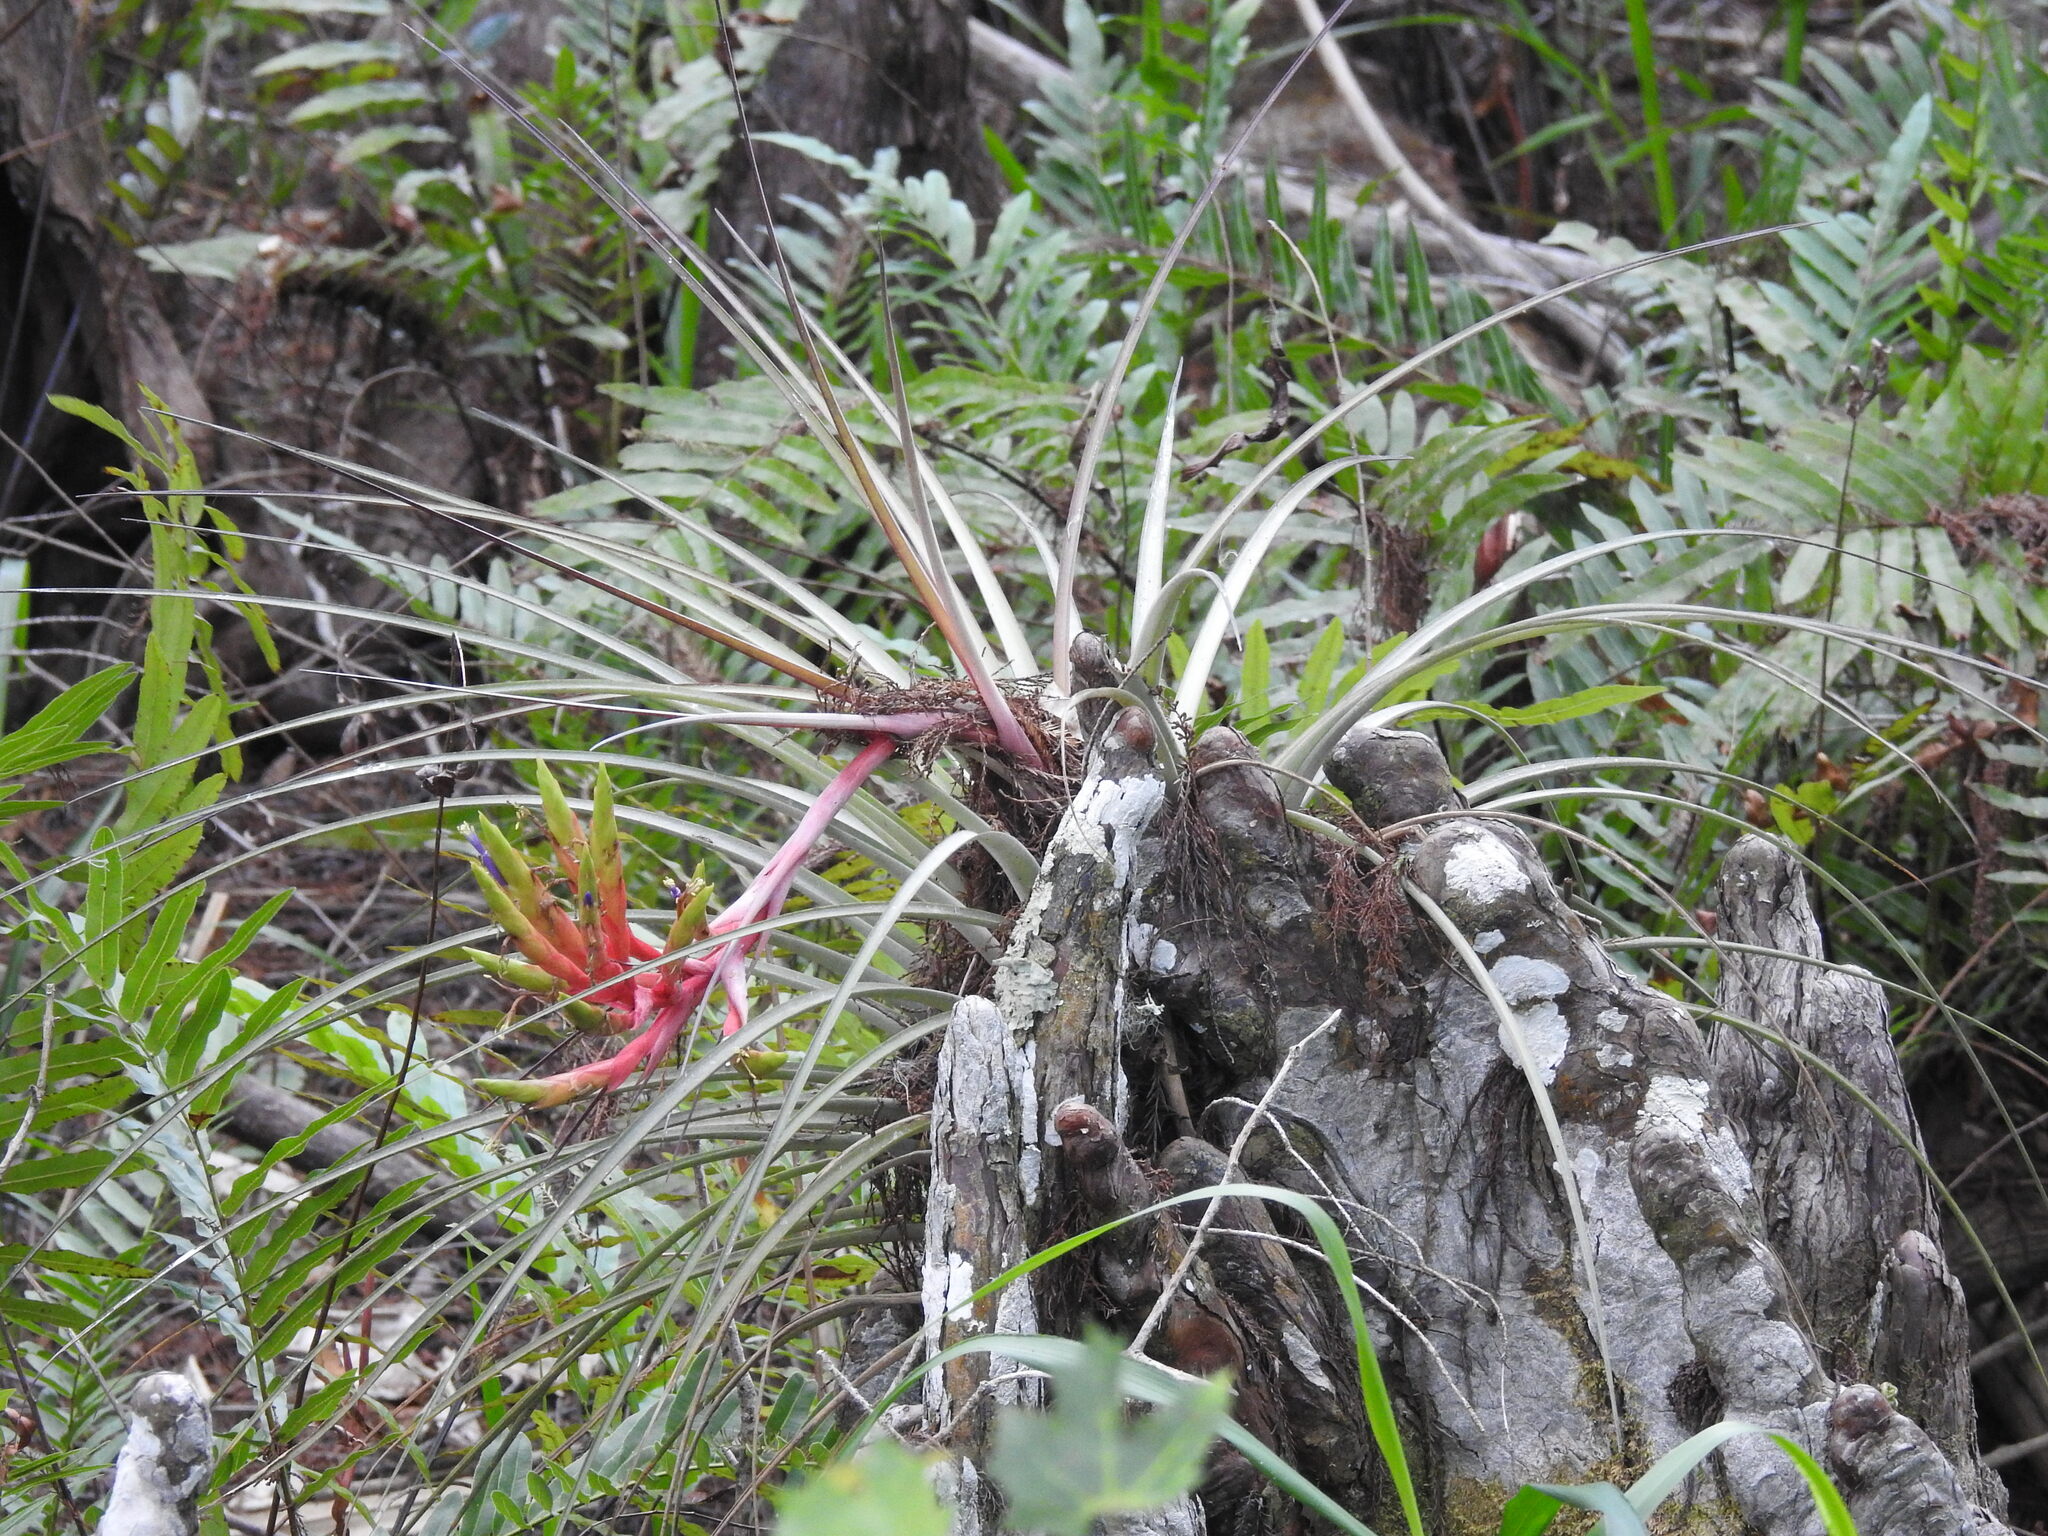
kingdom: Plantae
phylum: Tracheophyta
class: Liliopsida
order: Poales
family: Bromeliaceae
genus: Tillandsia
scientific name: Tillandsia fasciculata
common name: Giant airplant
